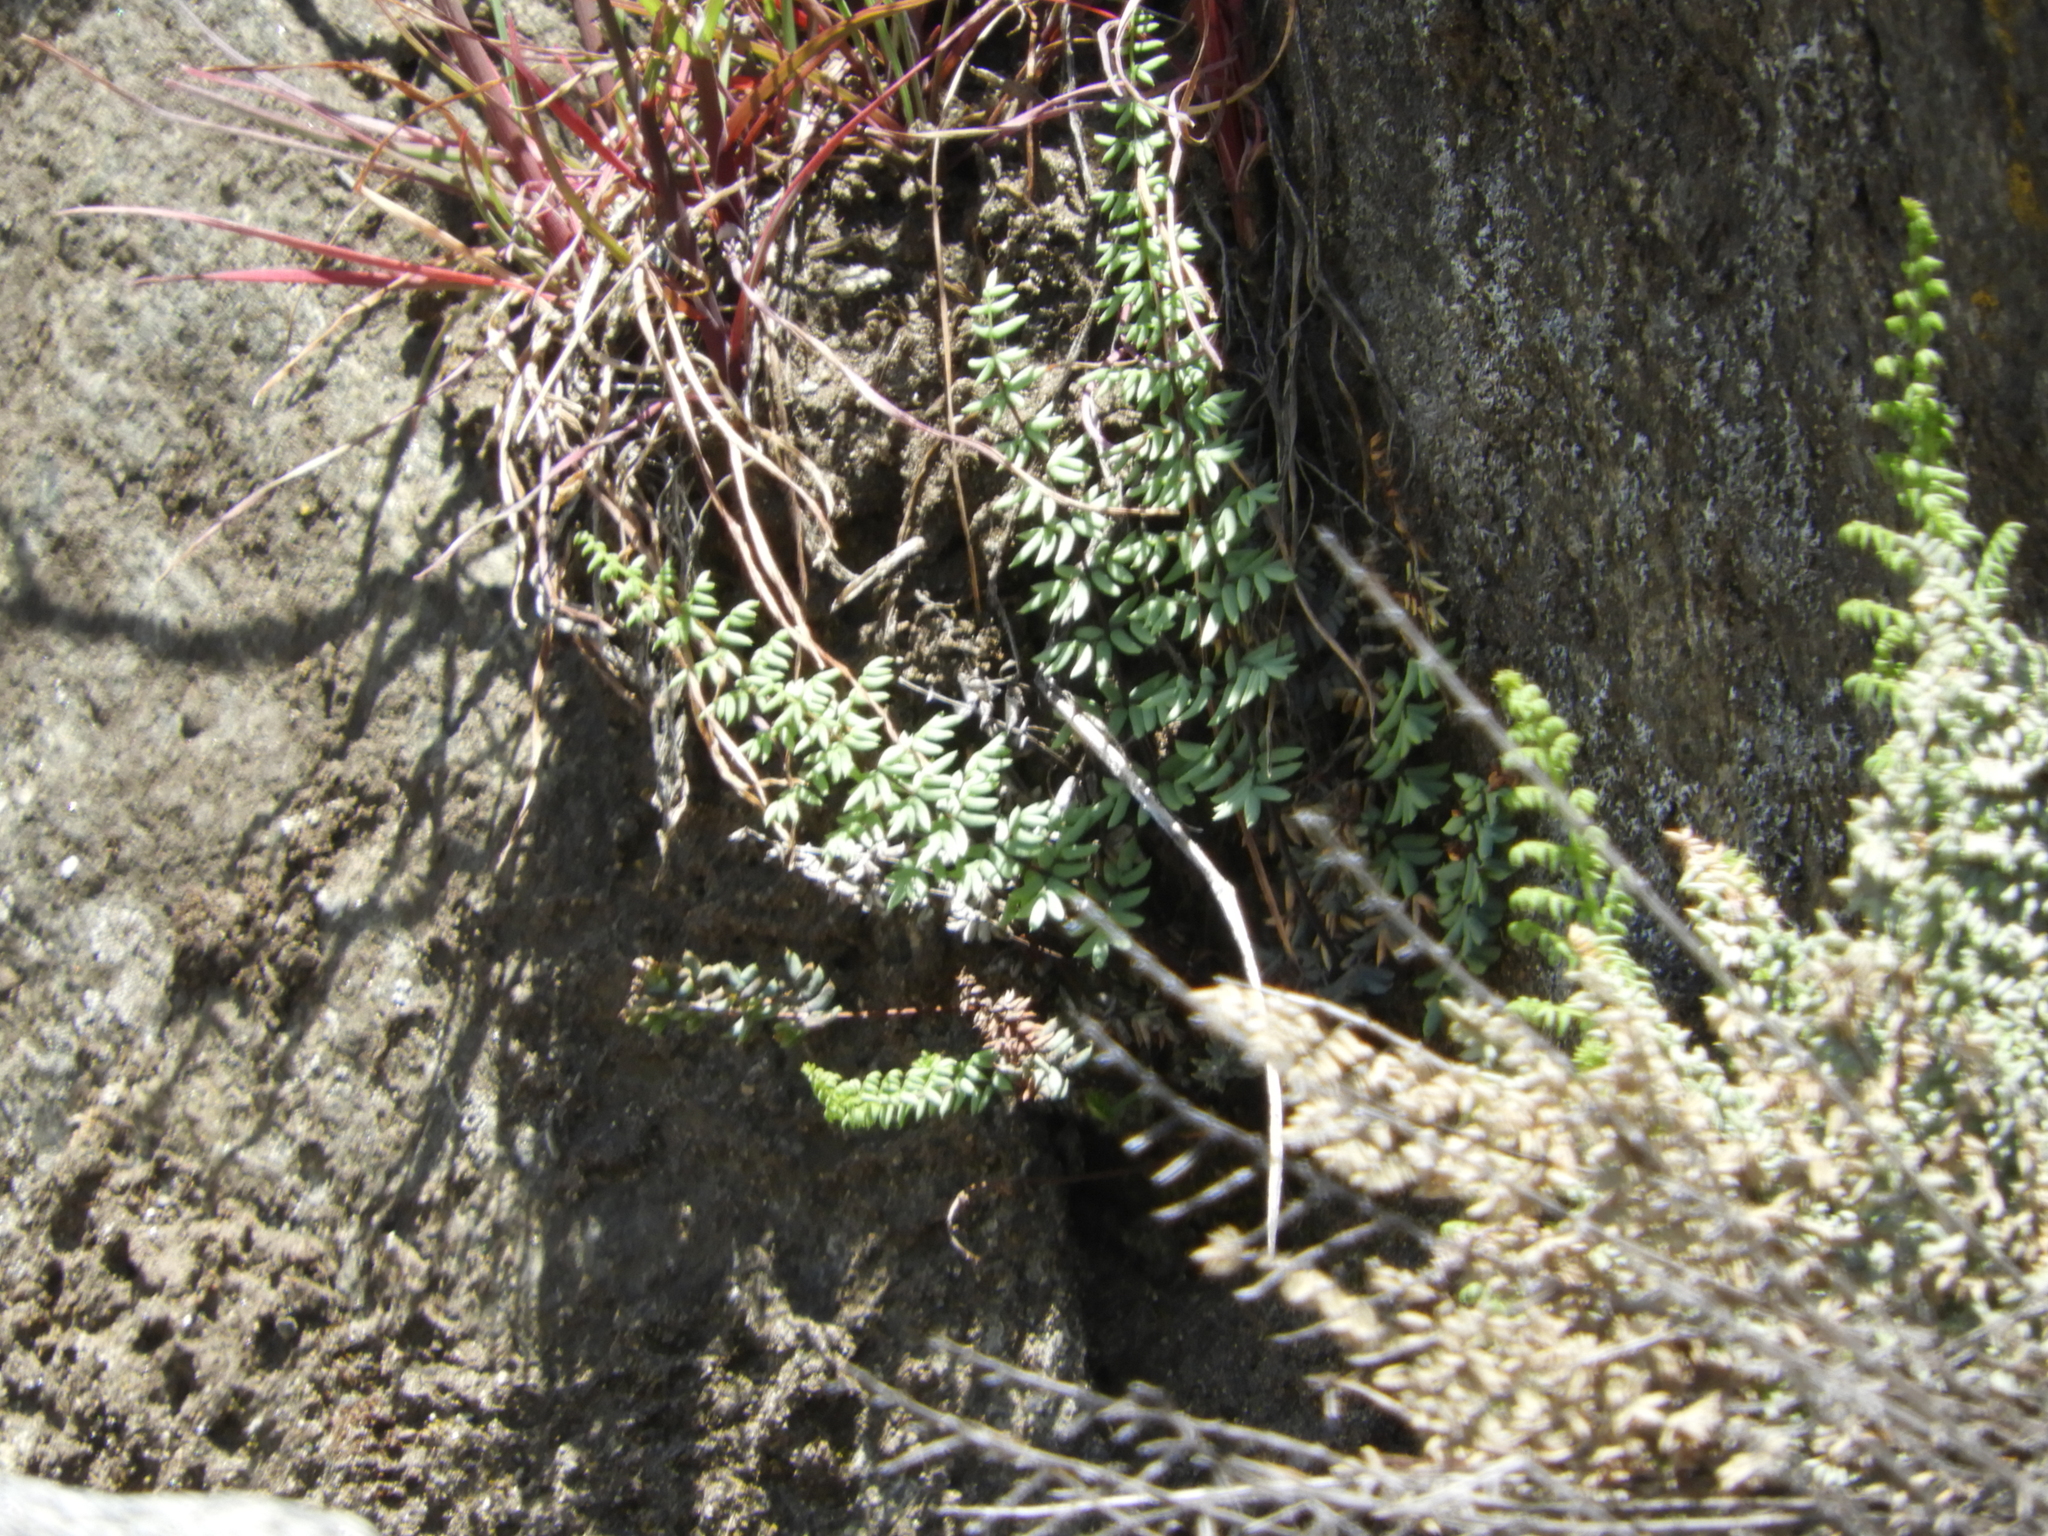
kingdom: Plantae
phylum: Tracheophyta
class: Polypodiopsida
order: Polypodiales
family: Pteridaceae
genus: Pellaea
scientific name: Pellaea mucronata
